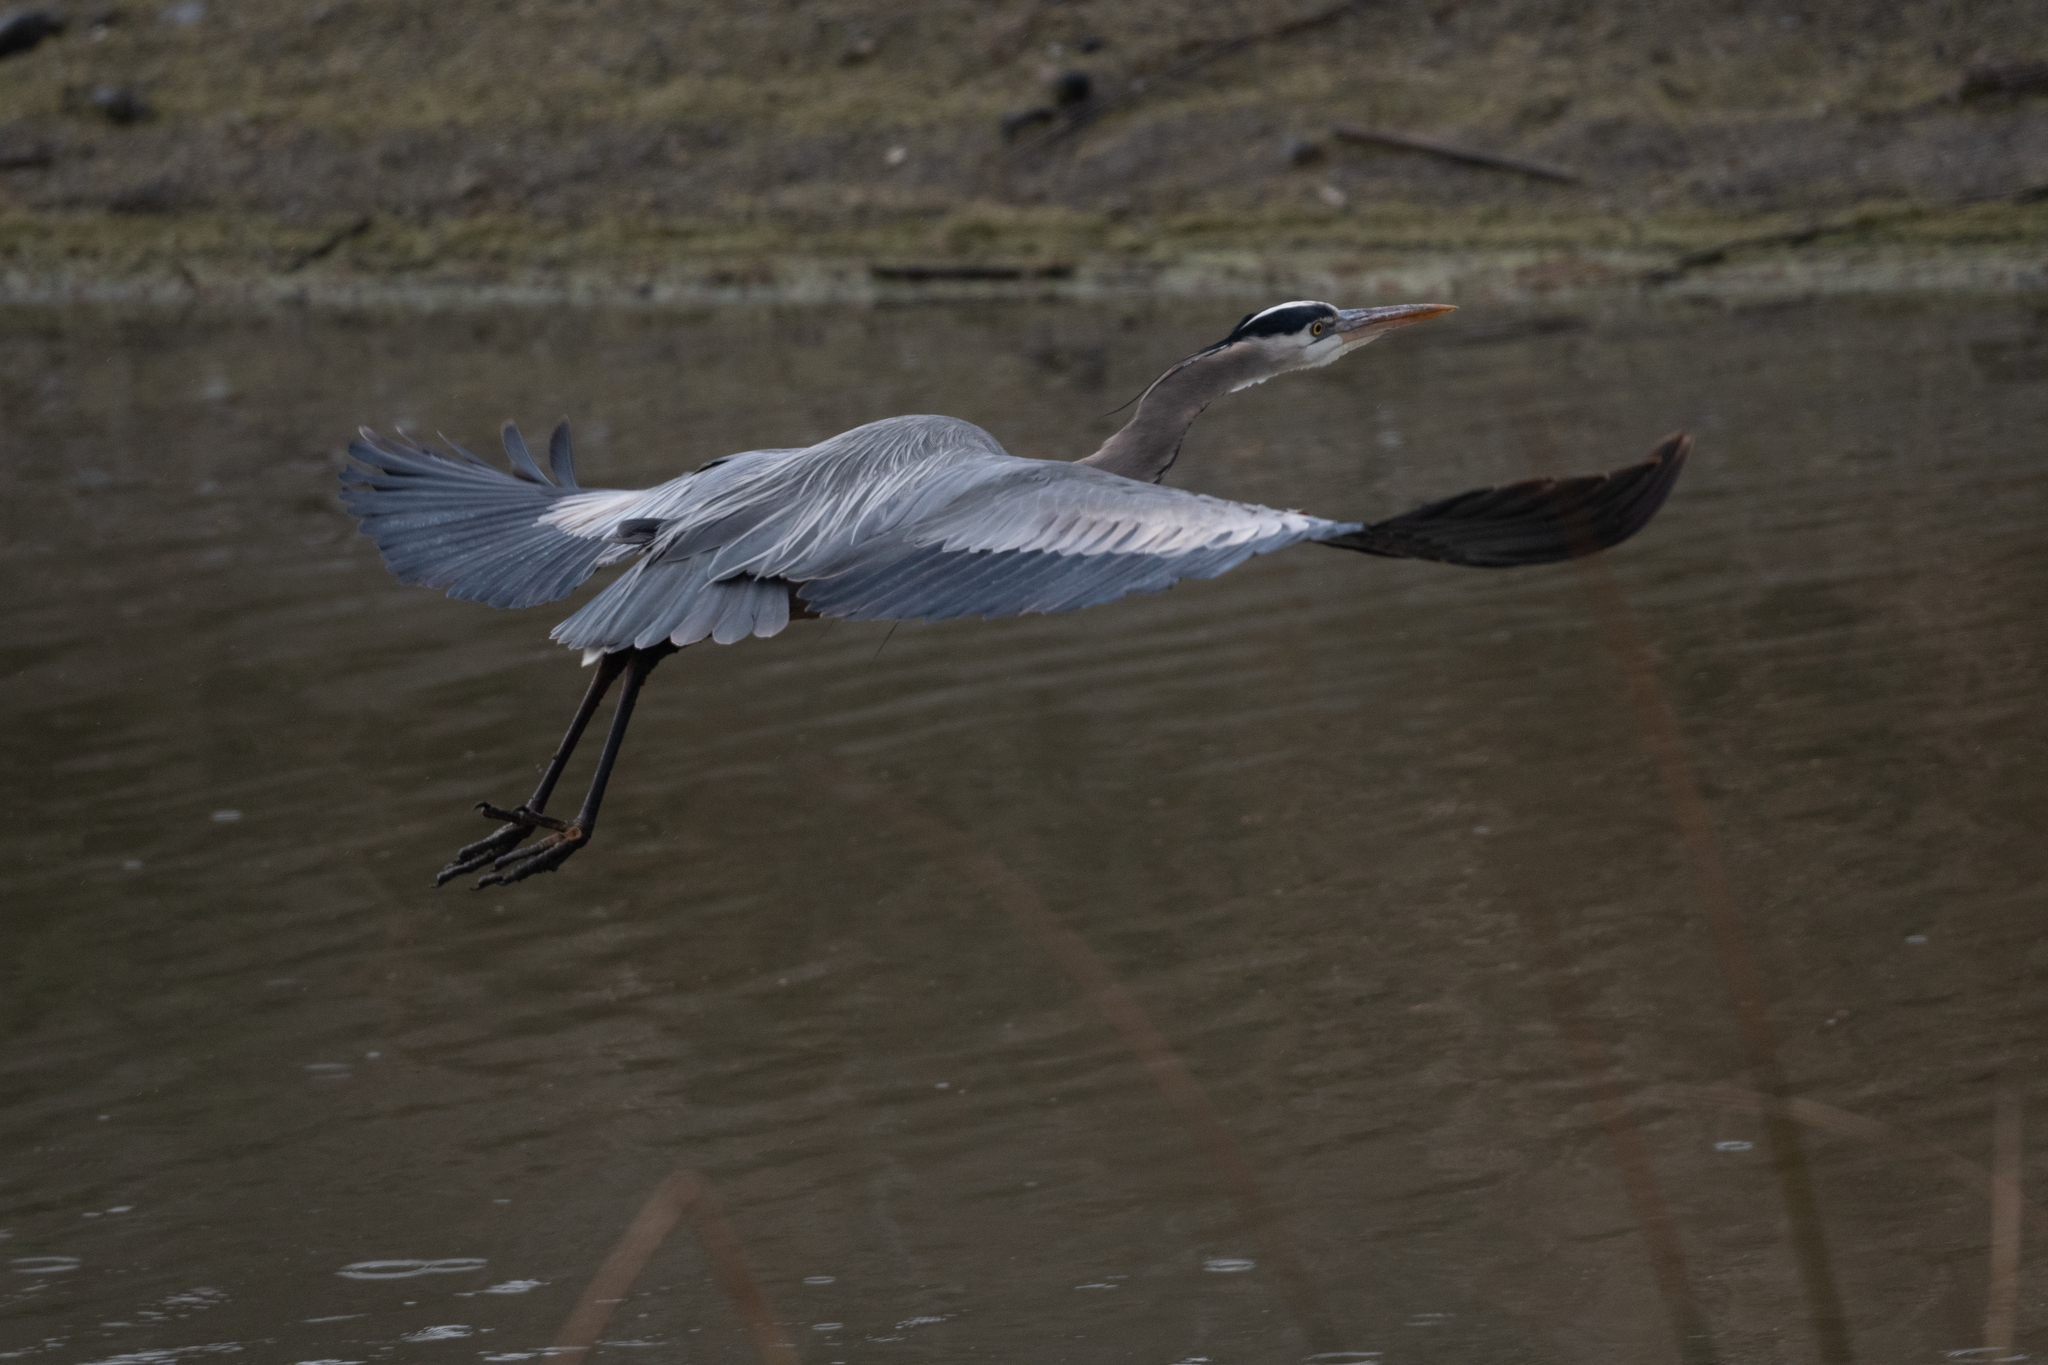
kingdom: Animalia
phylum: Chordata
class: Aves
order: Pelecaniformes
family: Ardeidae
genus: Ardea
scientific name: Ardea herodias
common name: Great blue heron
